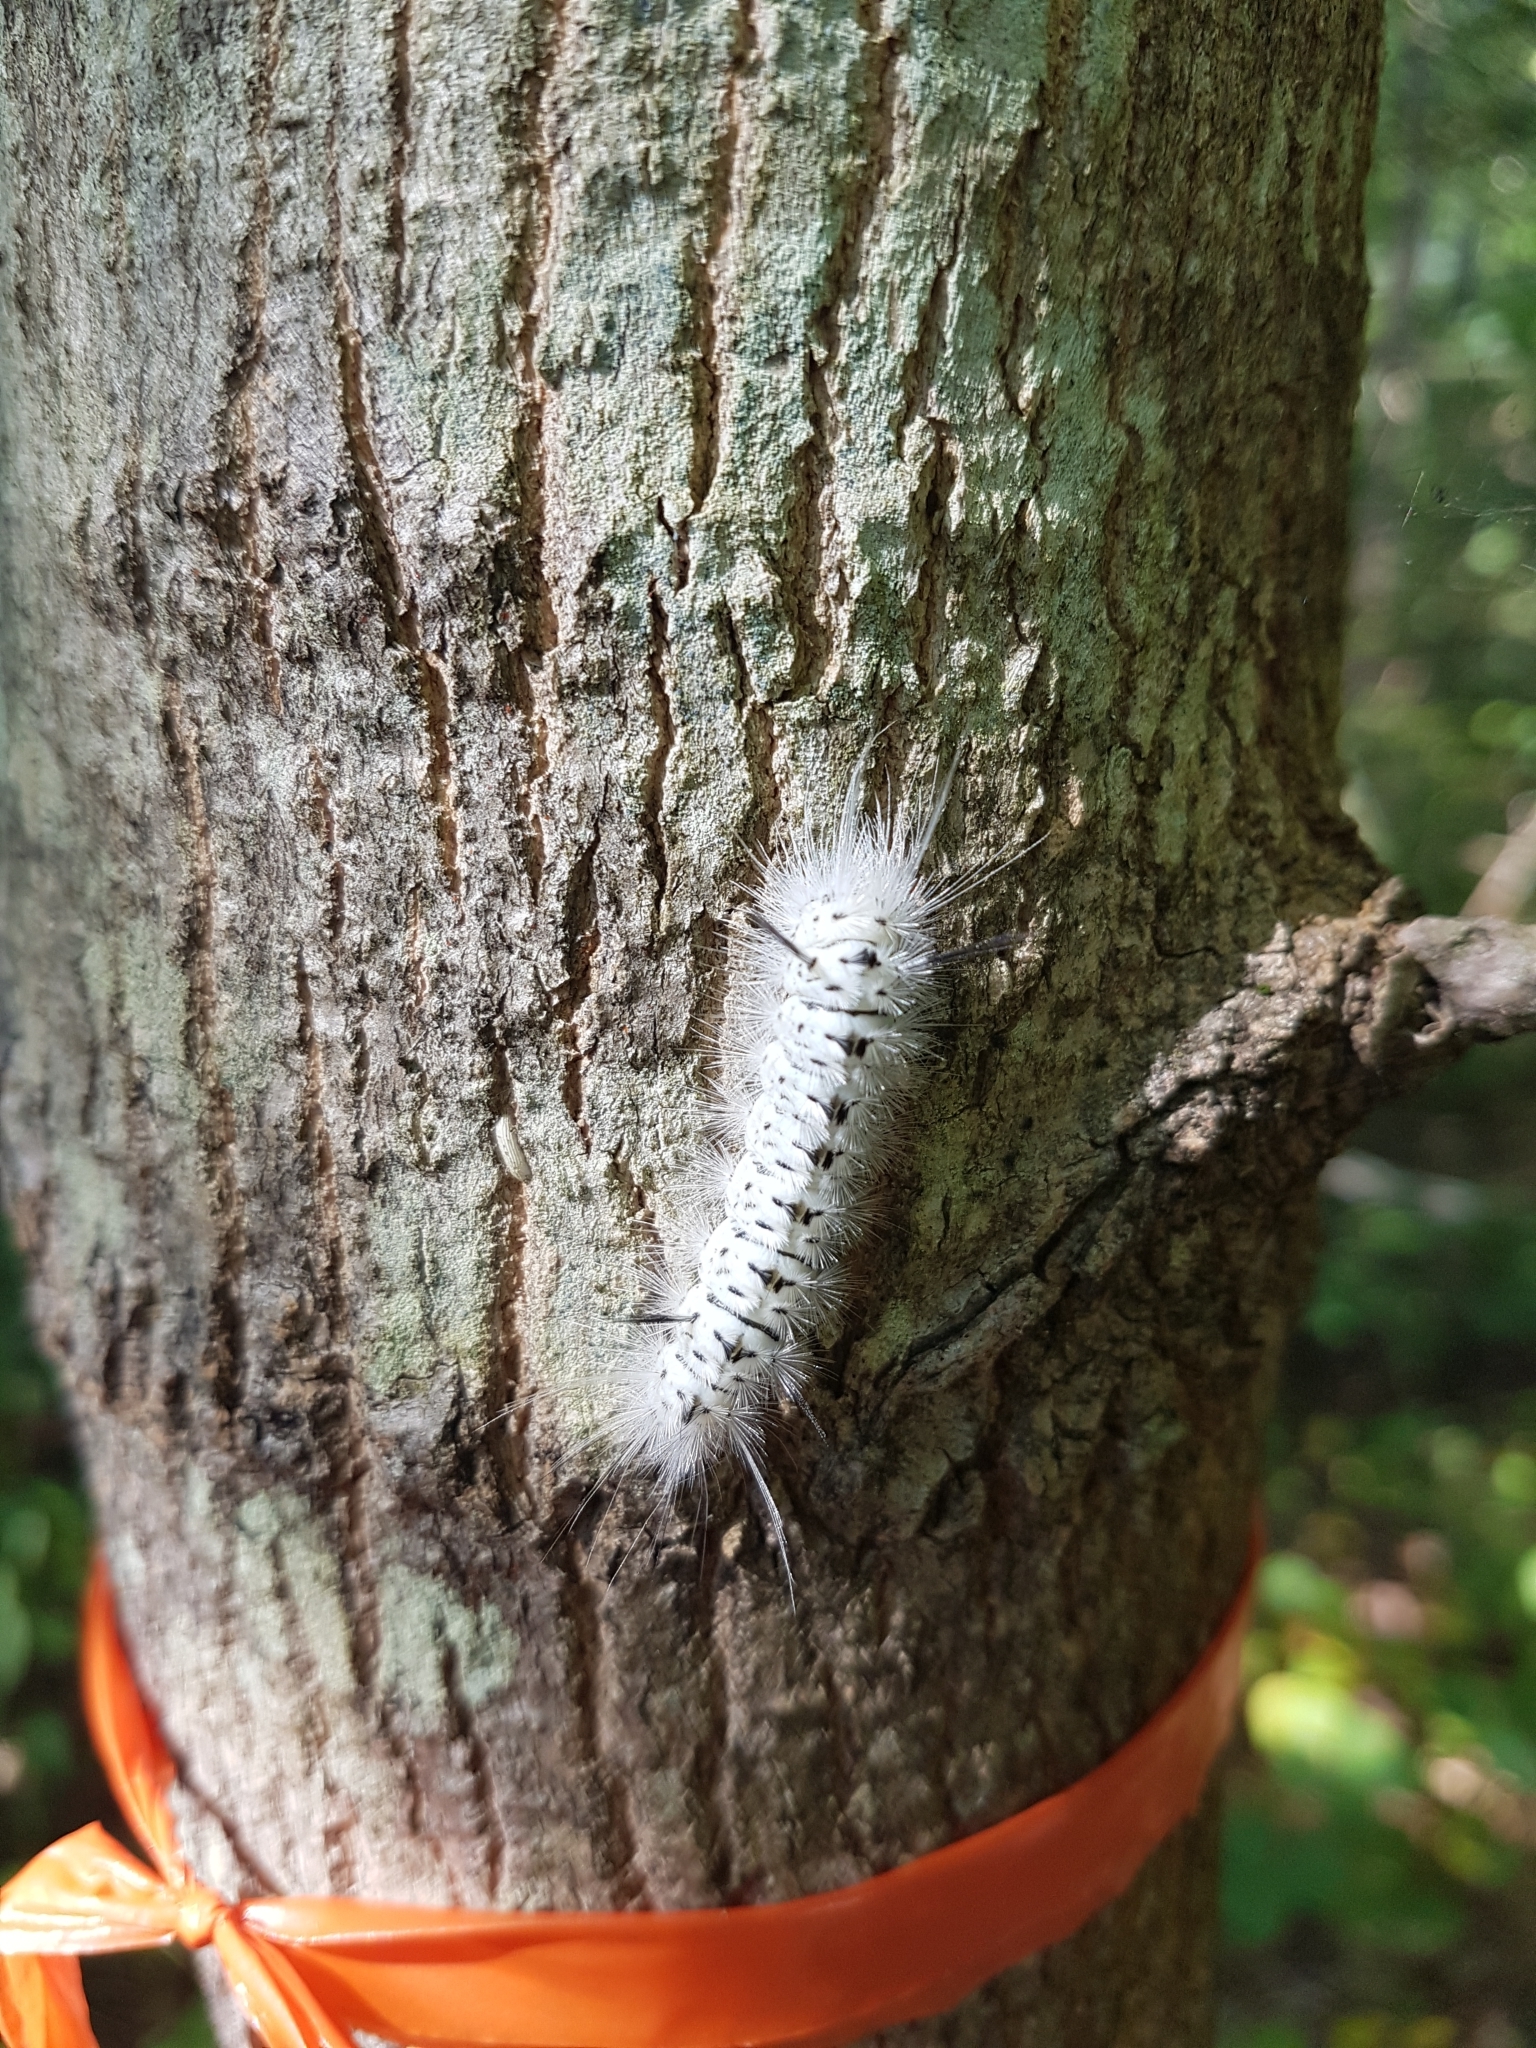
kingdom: Animalia
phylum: Arthropoda
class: Insecta
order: Lepidoptera
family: Erebidae
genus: Lophocampa
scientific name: Lophocampa caryae
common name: Hickory tussock moth
